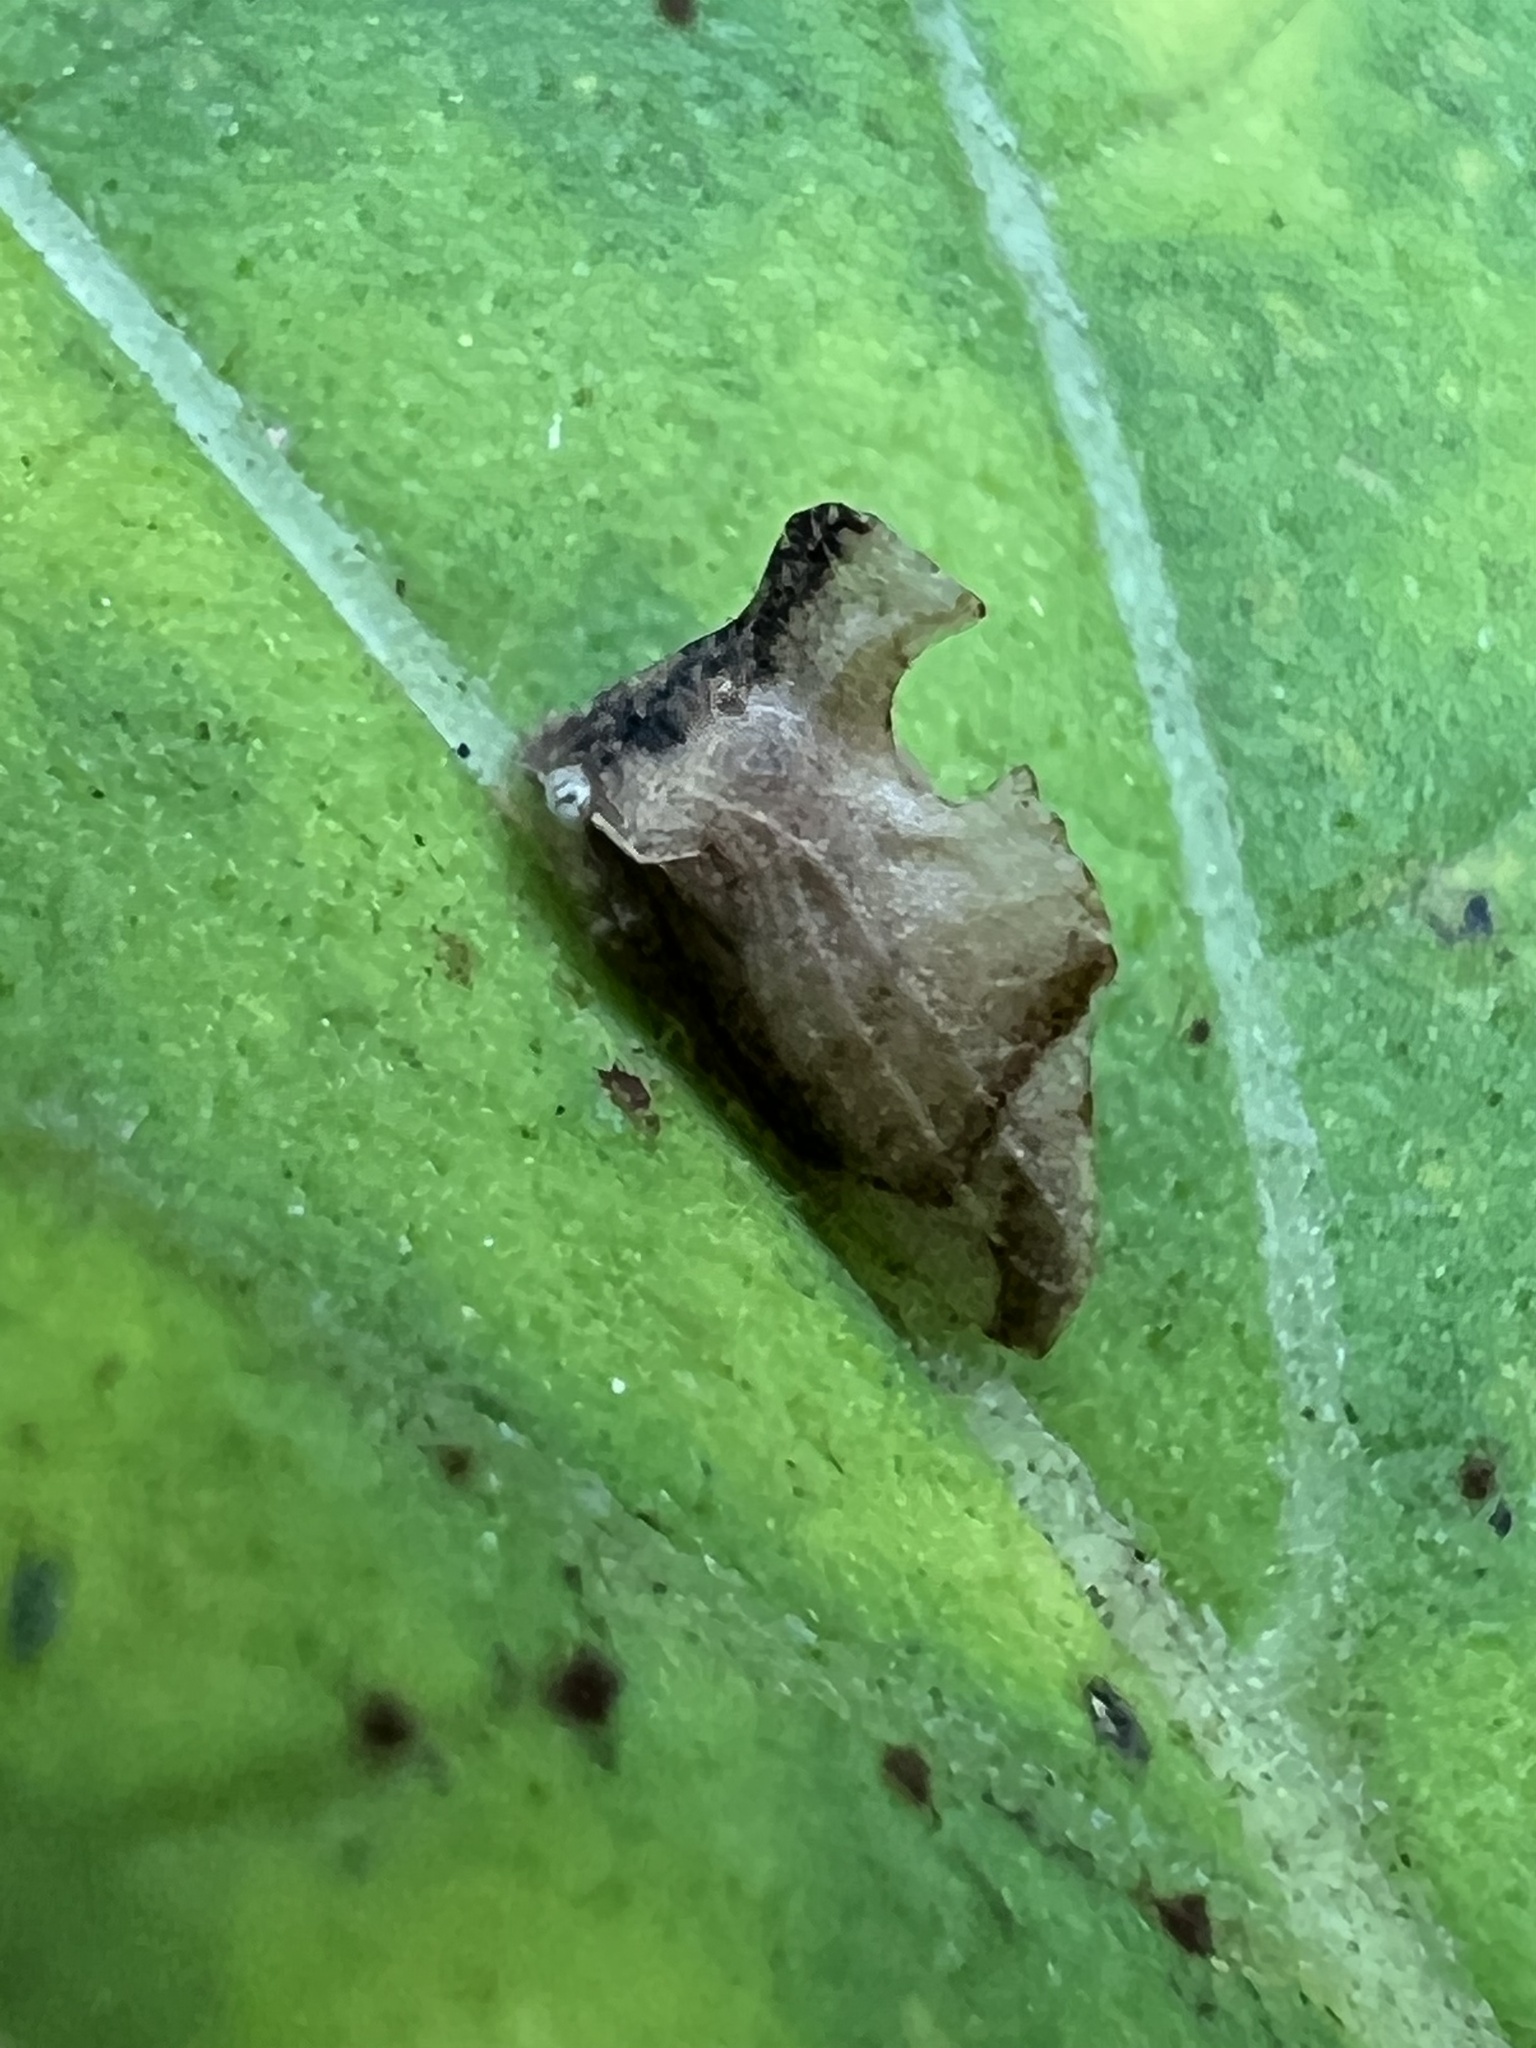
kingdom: Animalia
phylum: Arthropoda
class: Insecta
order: Hemiptera
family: Membracidae
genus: Entylia
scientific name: Entylia carinata
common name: Keeled treehopper
